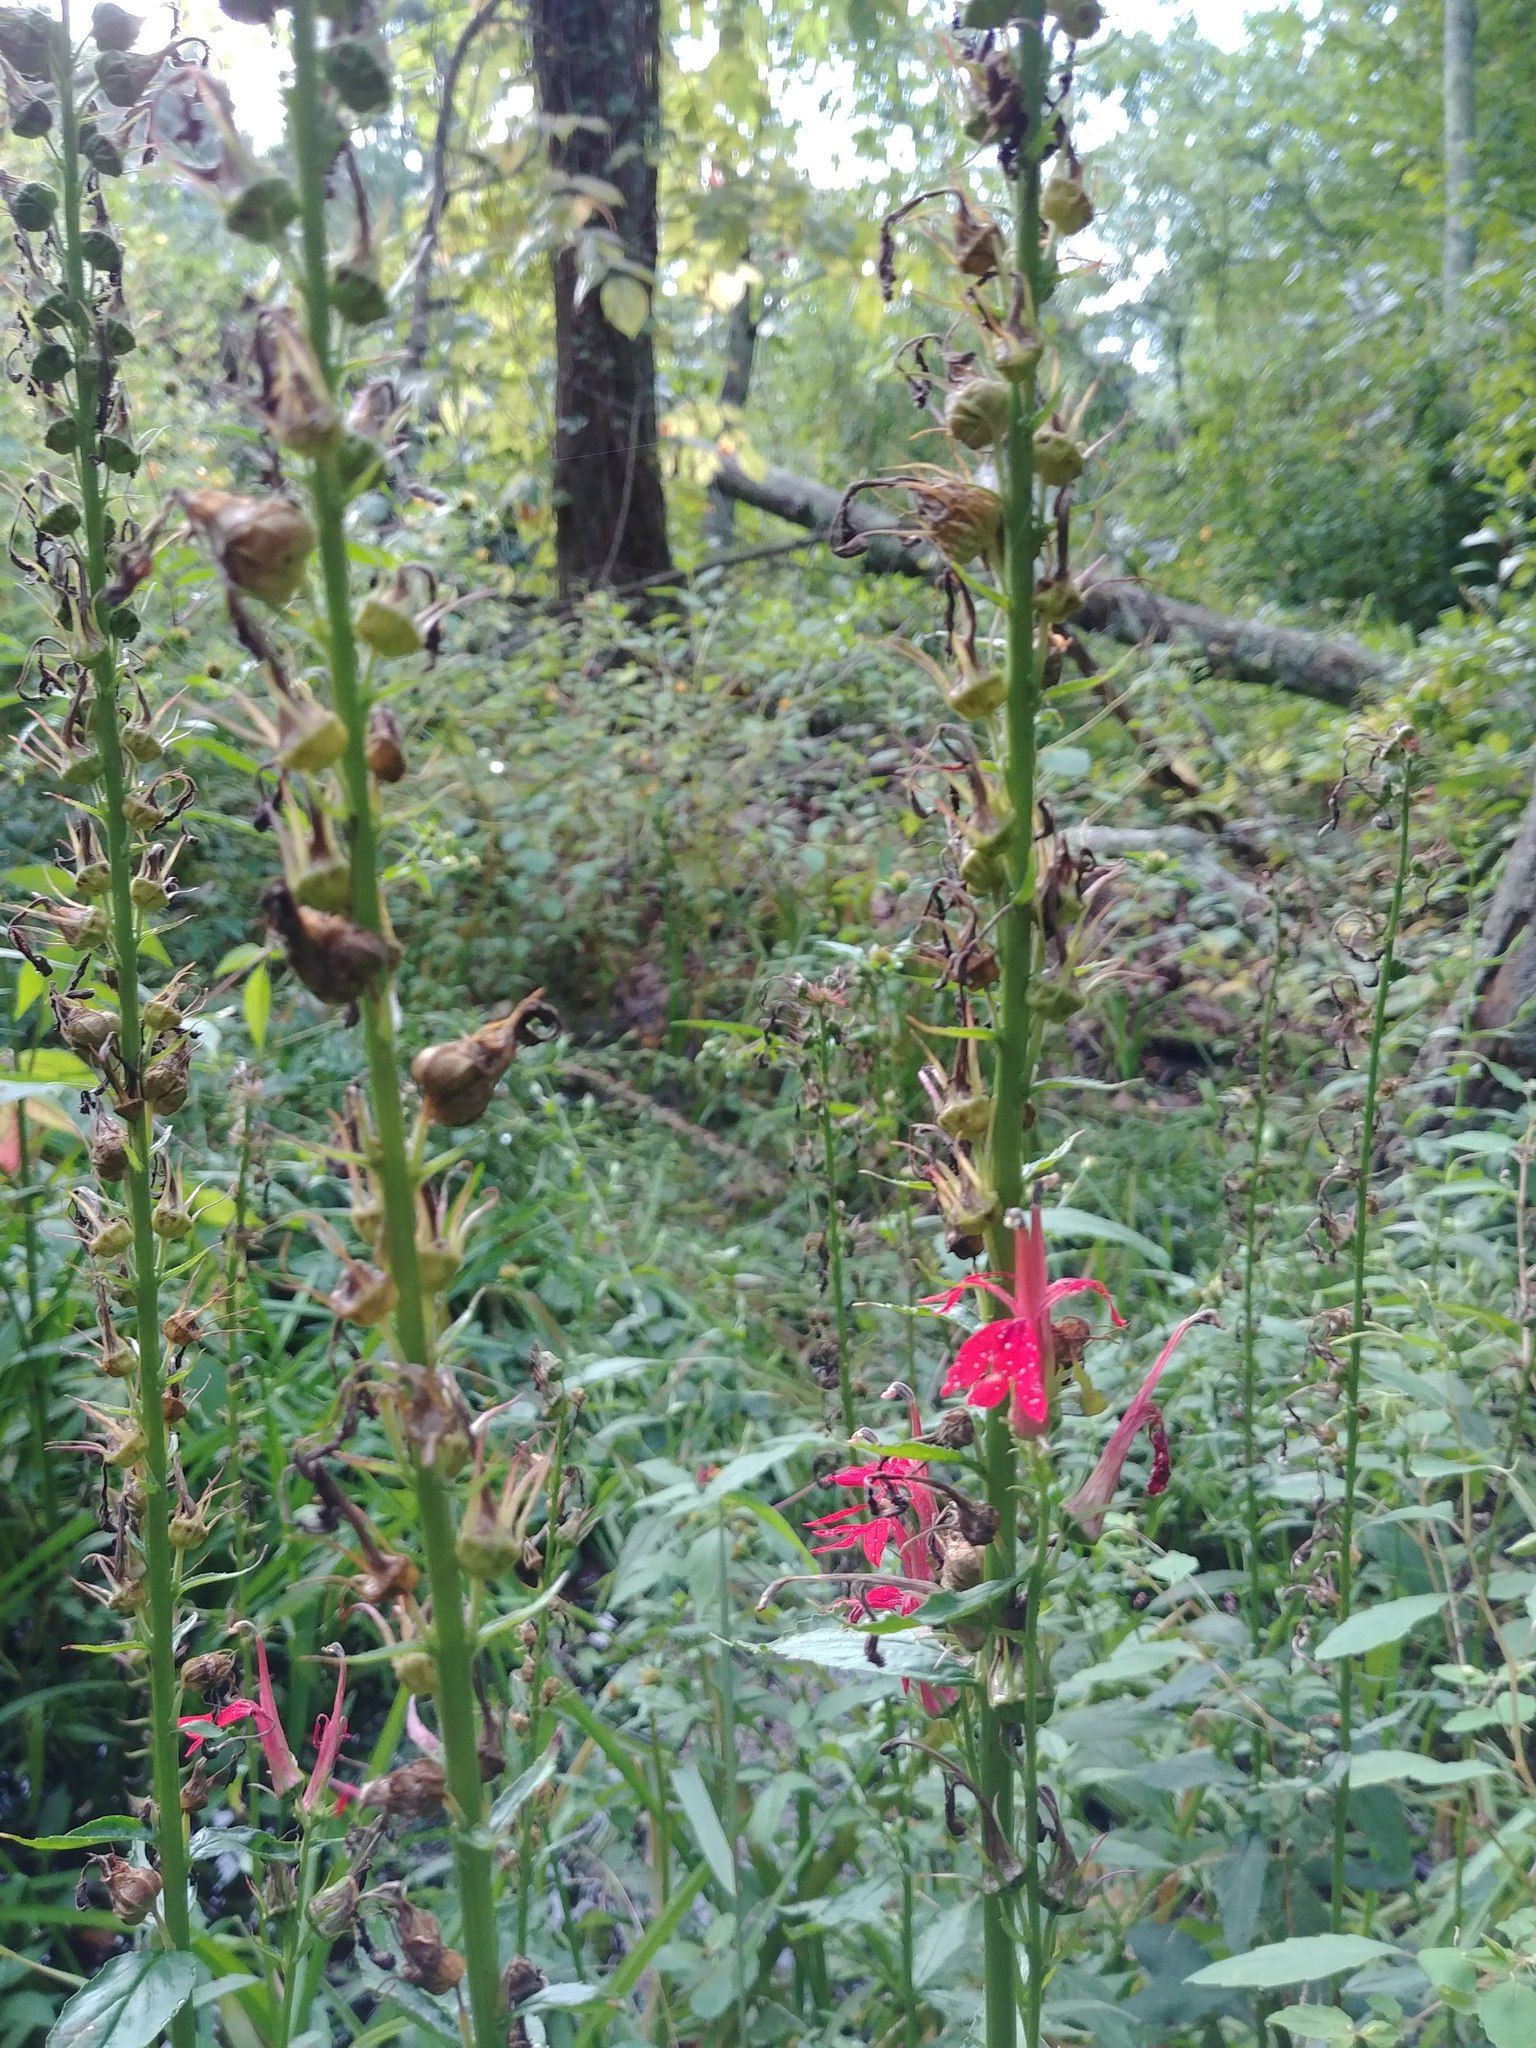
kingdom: Plantae
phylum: Tracheophyta
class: Magnoliopsida
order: Asterales
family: Campanulaceae
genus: Lobelia
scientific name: Lobelia cardinalis
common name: Cardinal flower
